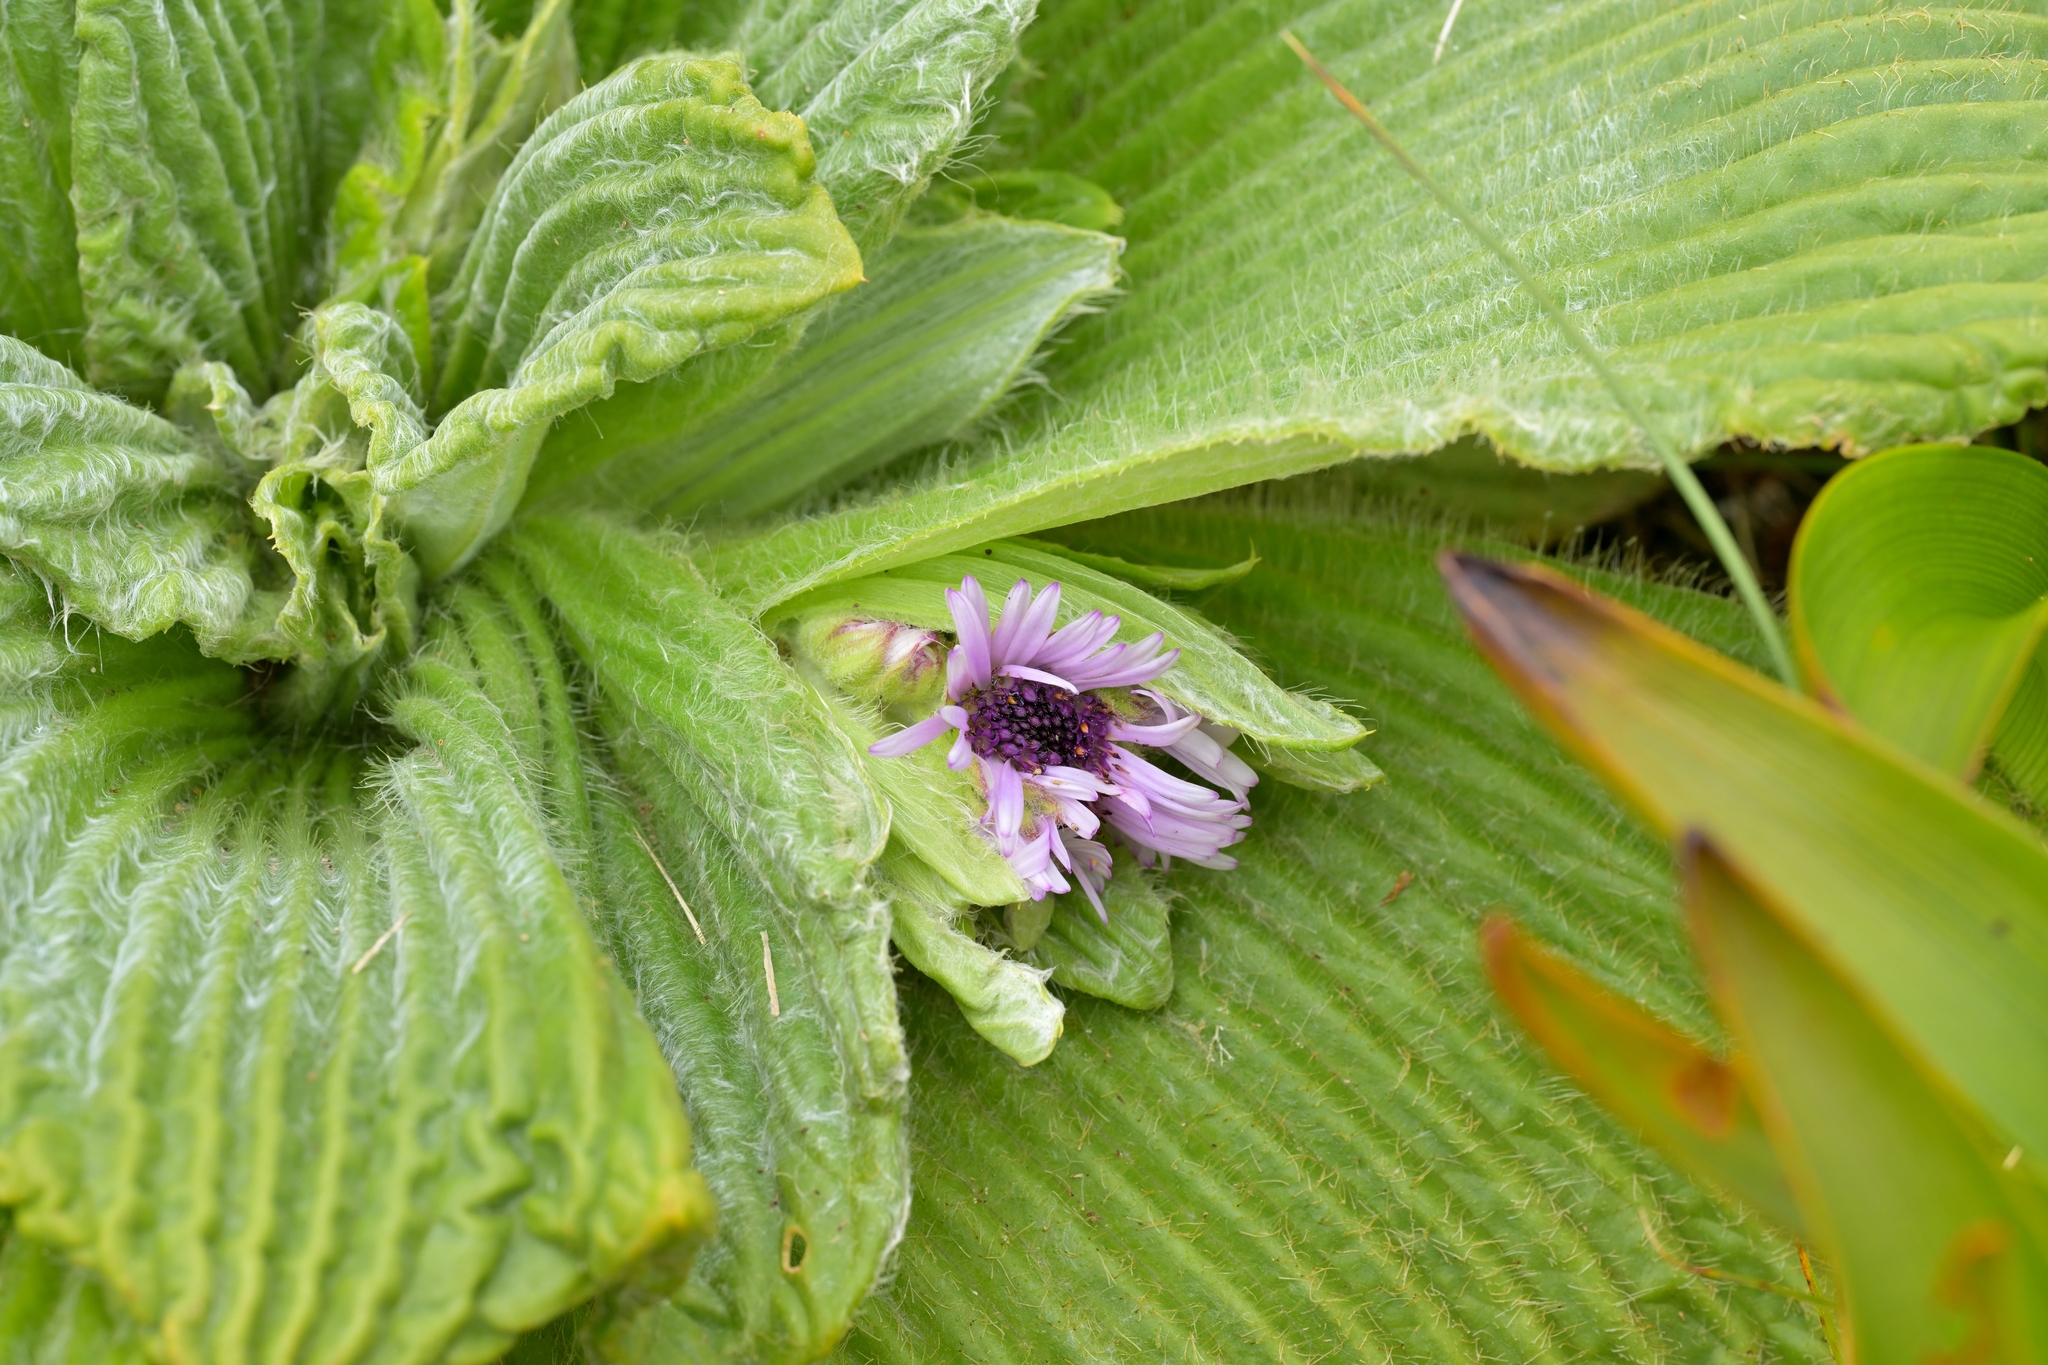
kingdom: Plantae
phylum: Tracheophyta
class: Magnoliopsida
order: Asterales
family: Asteraceae
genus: Pleurophyllum
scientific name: Pleurophyllum speciosum
